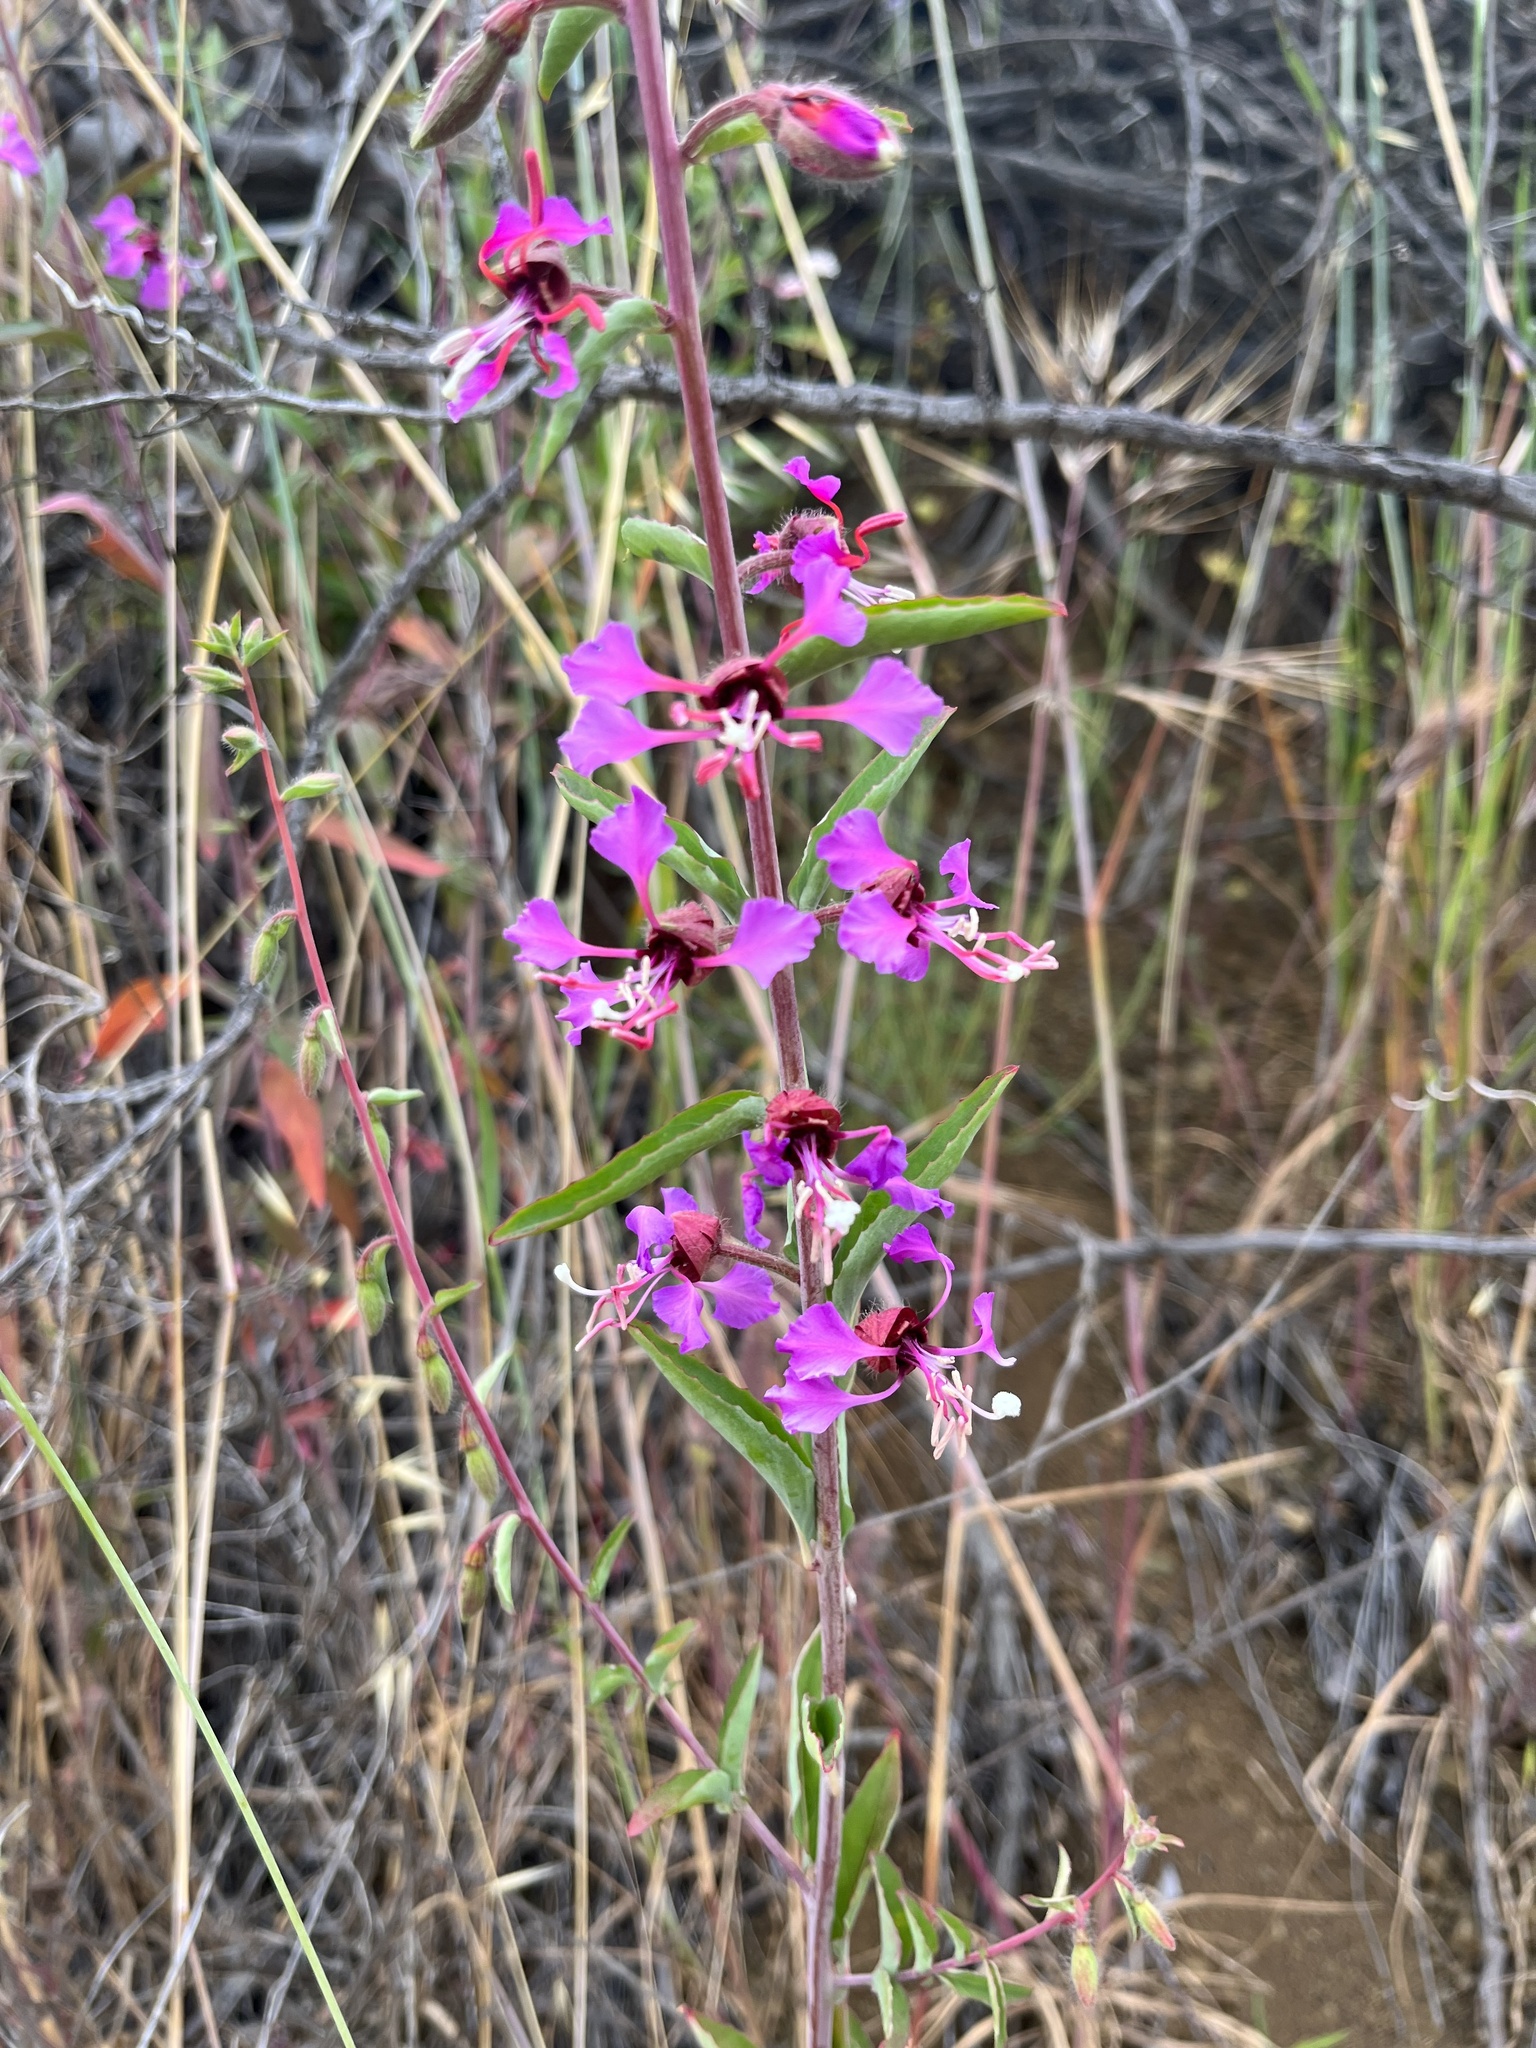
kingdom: Plantae
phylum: Tracheophyta
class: Magnoliopsida
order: Myrtales
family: Onagraceae
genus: Clarkia
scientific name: Clarkia unguiculata
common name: Clarkia
